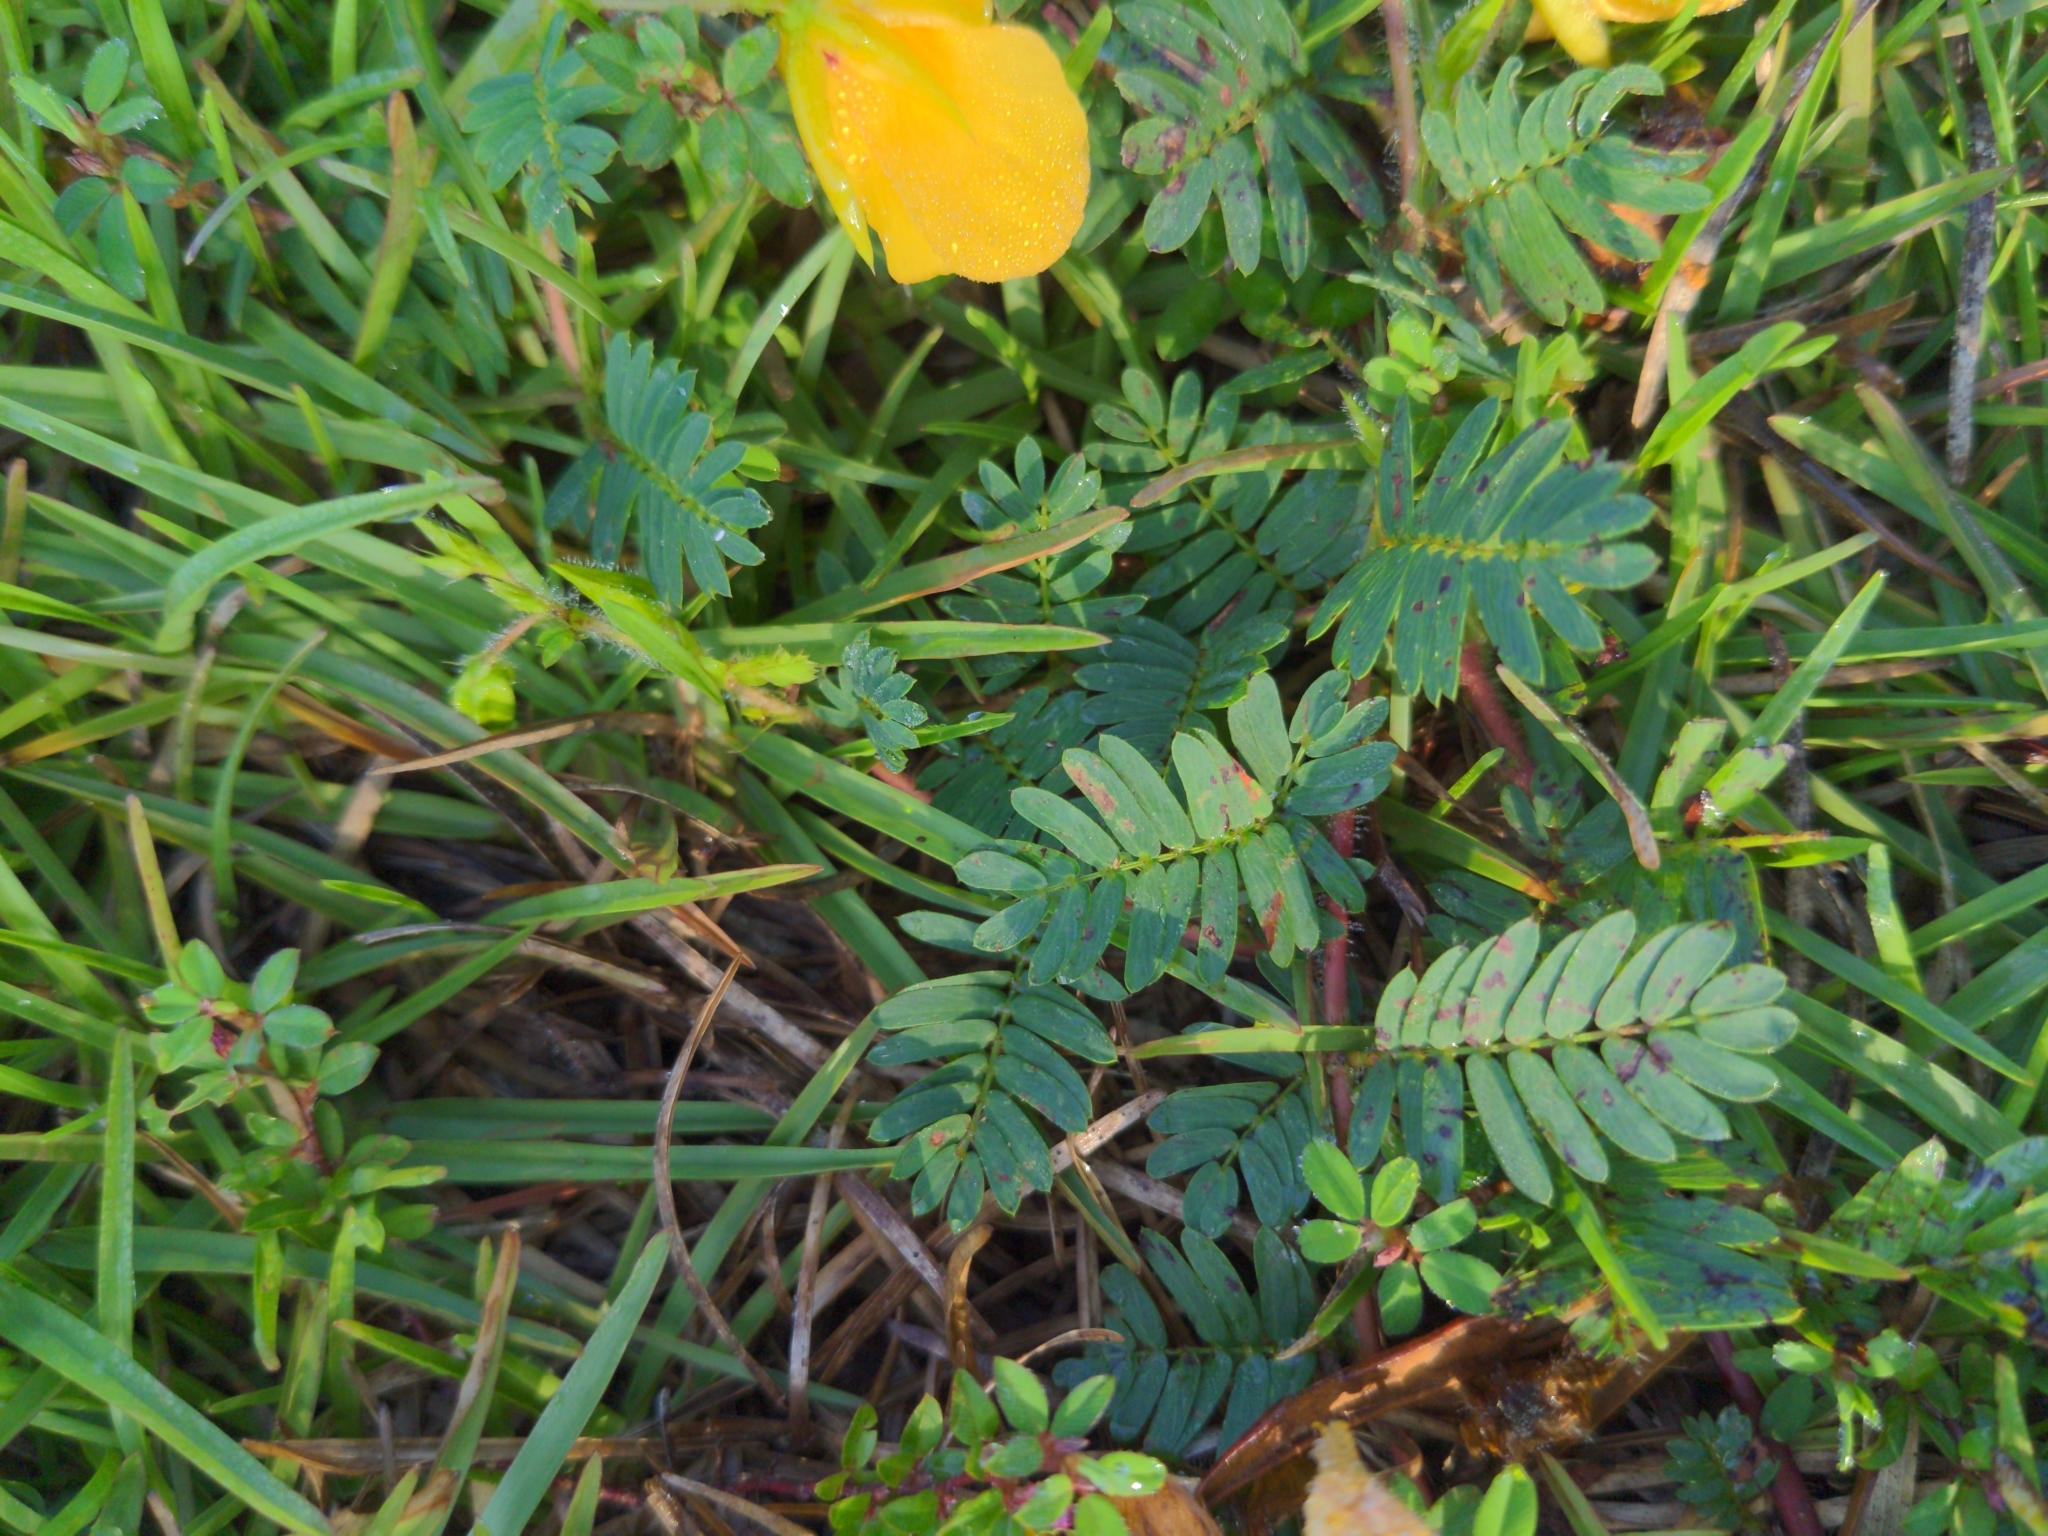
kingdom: Plantae
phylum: Tracheophyta
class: Magnoliopsida
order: Fabales
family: Fabaceae
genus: Chamaecrista
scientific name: Chamaecrista fasciculata
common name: Golden cassia
